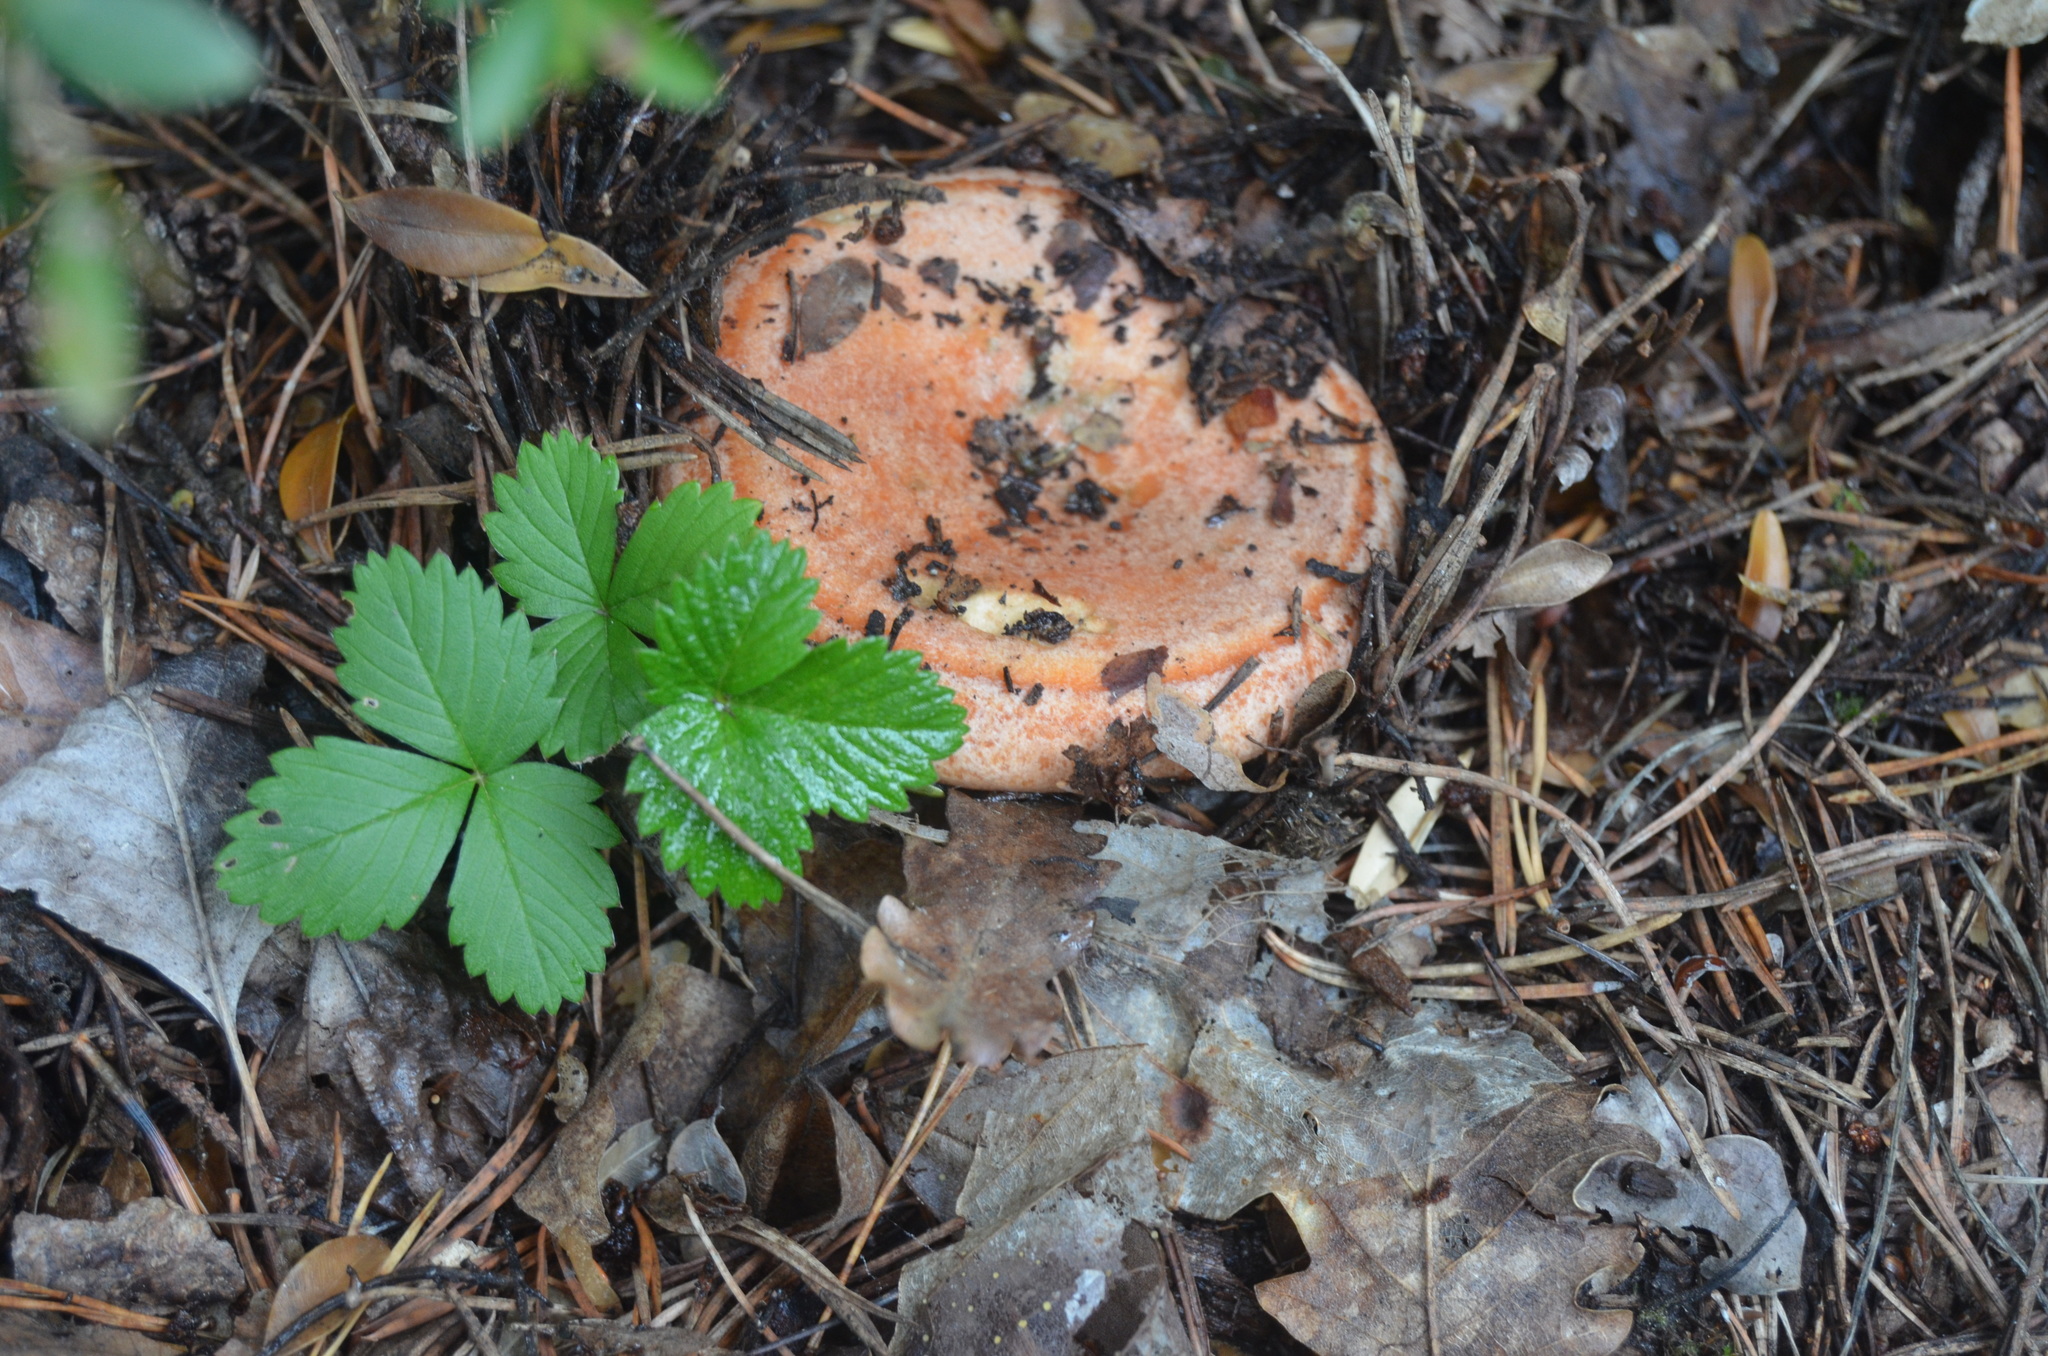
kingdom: Fungi
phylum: Basidiomycota
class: Agaricomycetes
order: Russulales
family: Russulaceae
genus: Lactarius
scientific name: Lactarius deliciosus
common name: Saffron milk-cap
